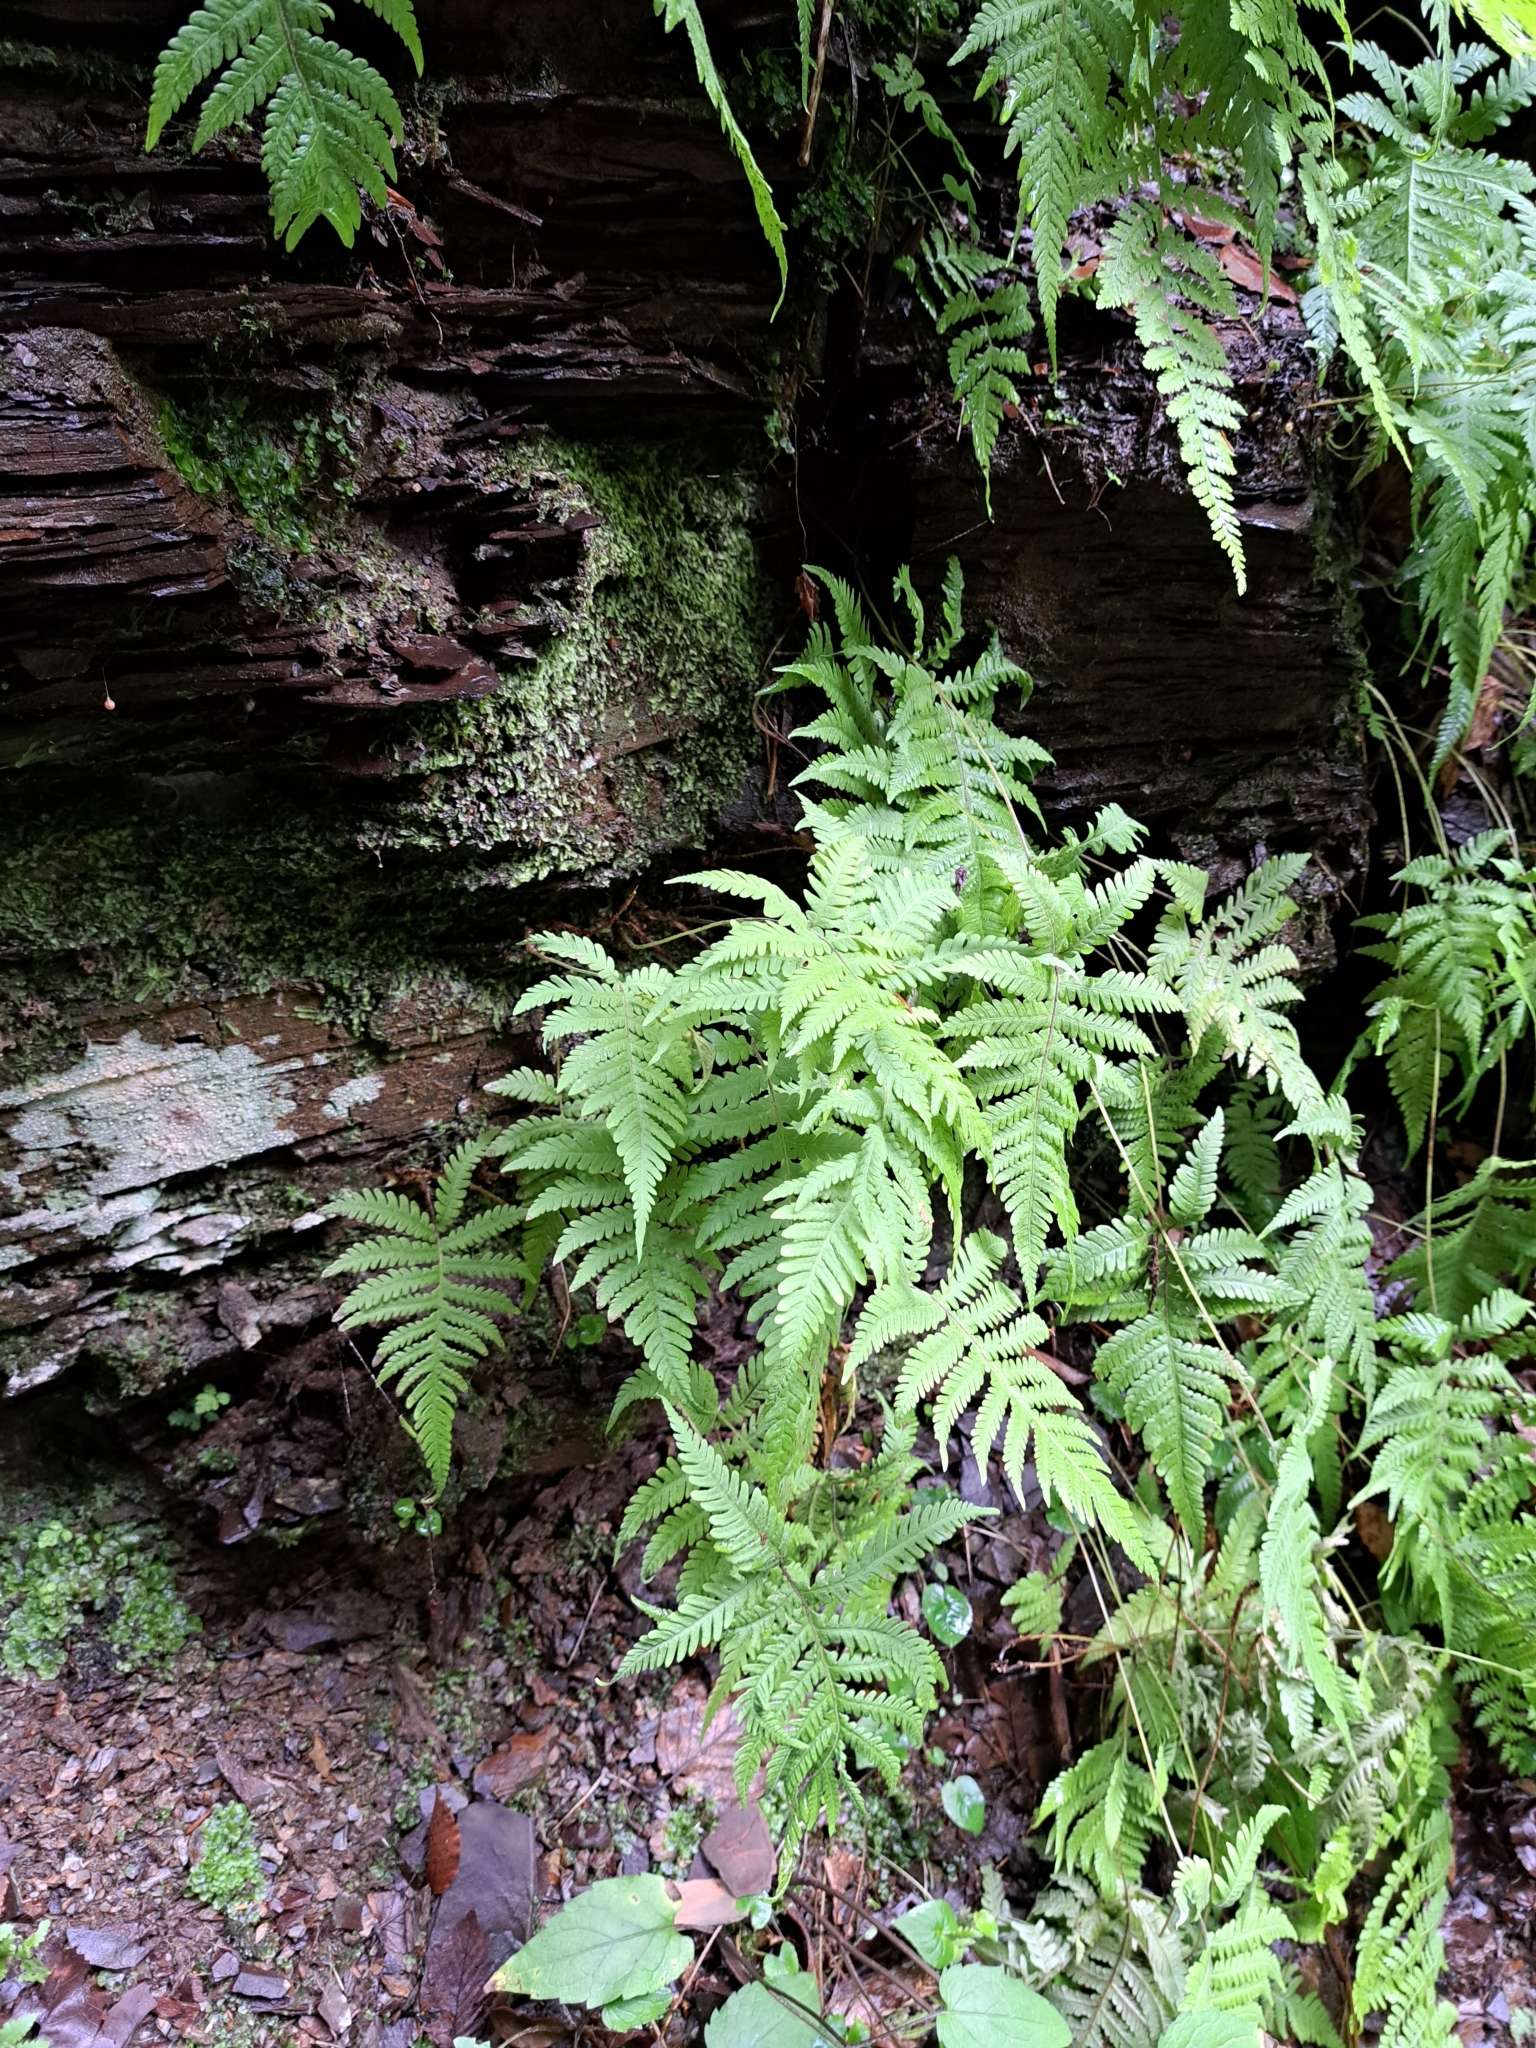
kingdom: Plantae
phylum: Tracheophyta
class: Polypodiopsida
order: Polypodiales
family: Thelypteridaceae
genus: Phegopteris
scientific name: Phegopteris connectilis
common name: Beech fern
